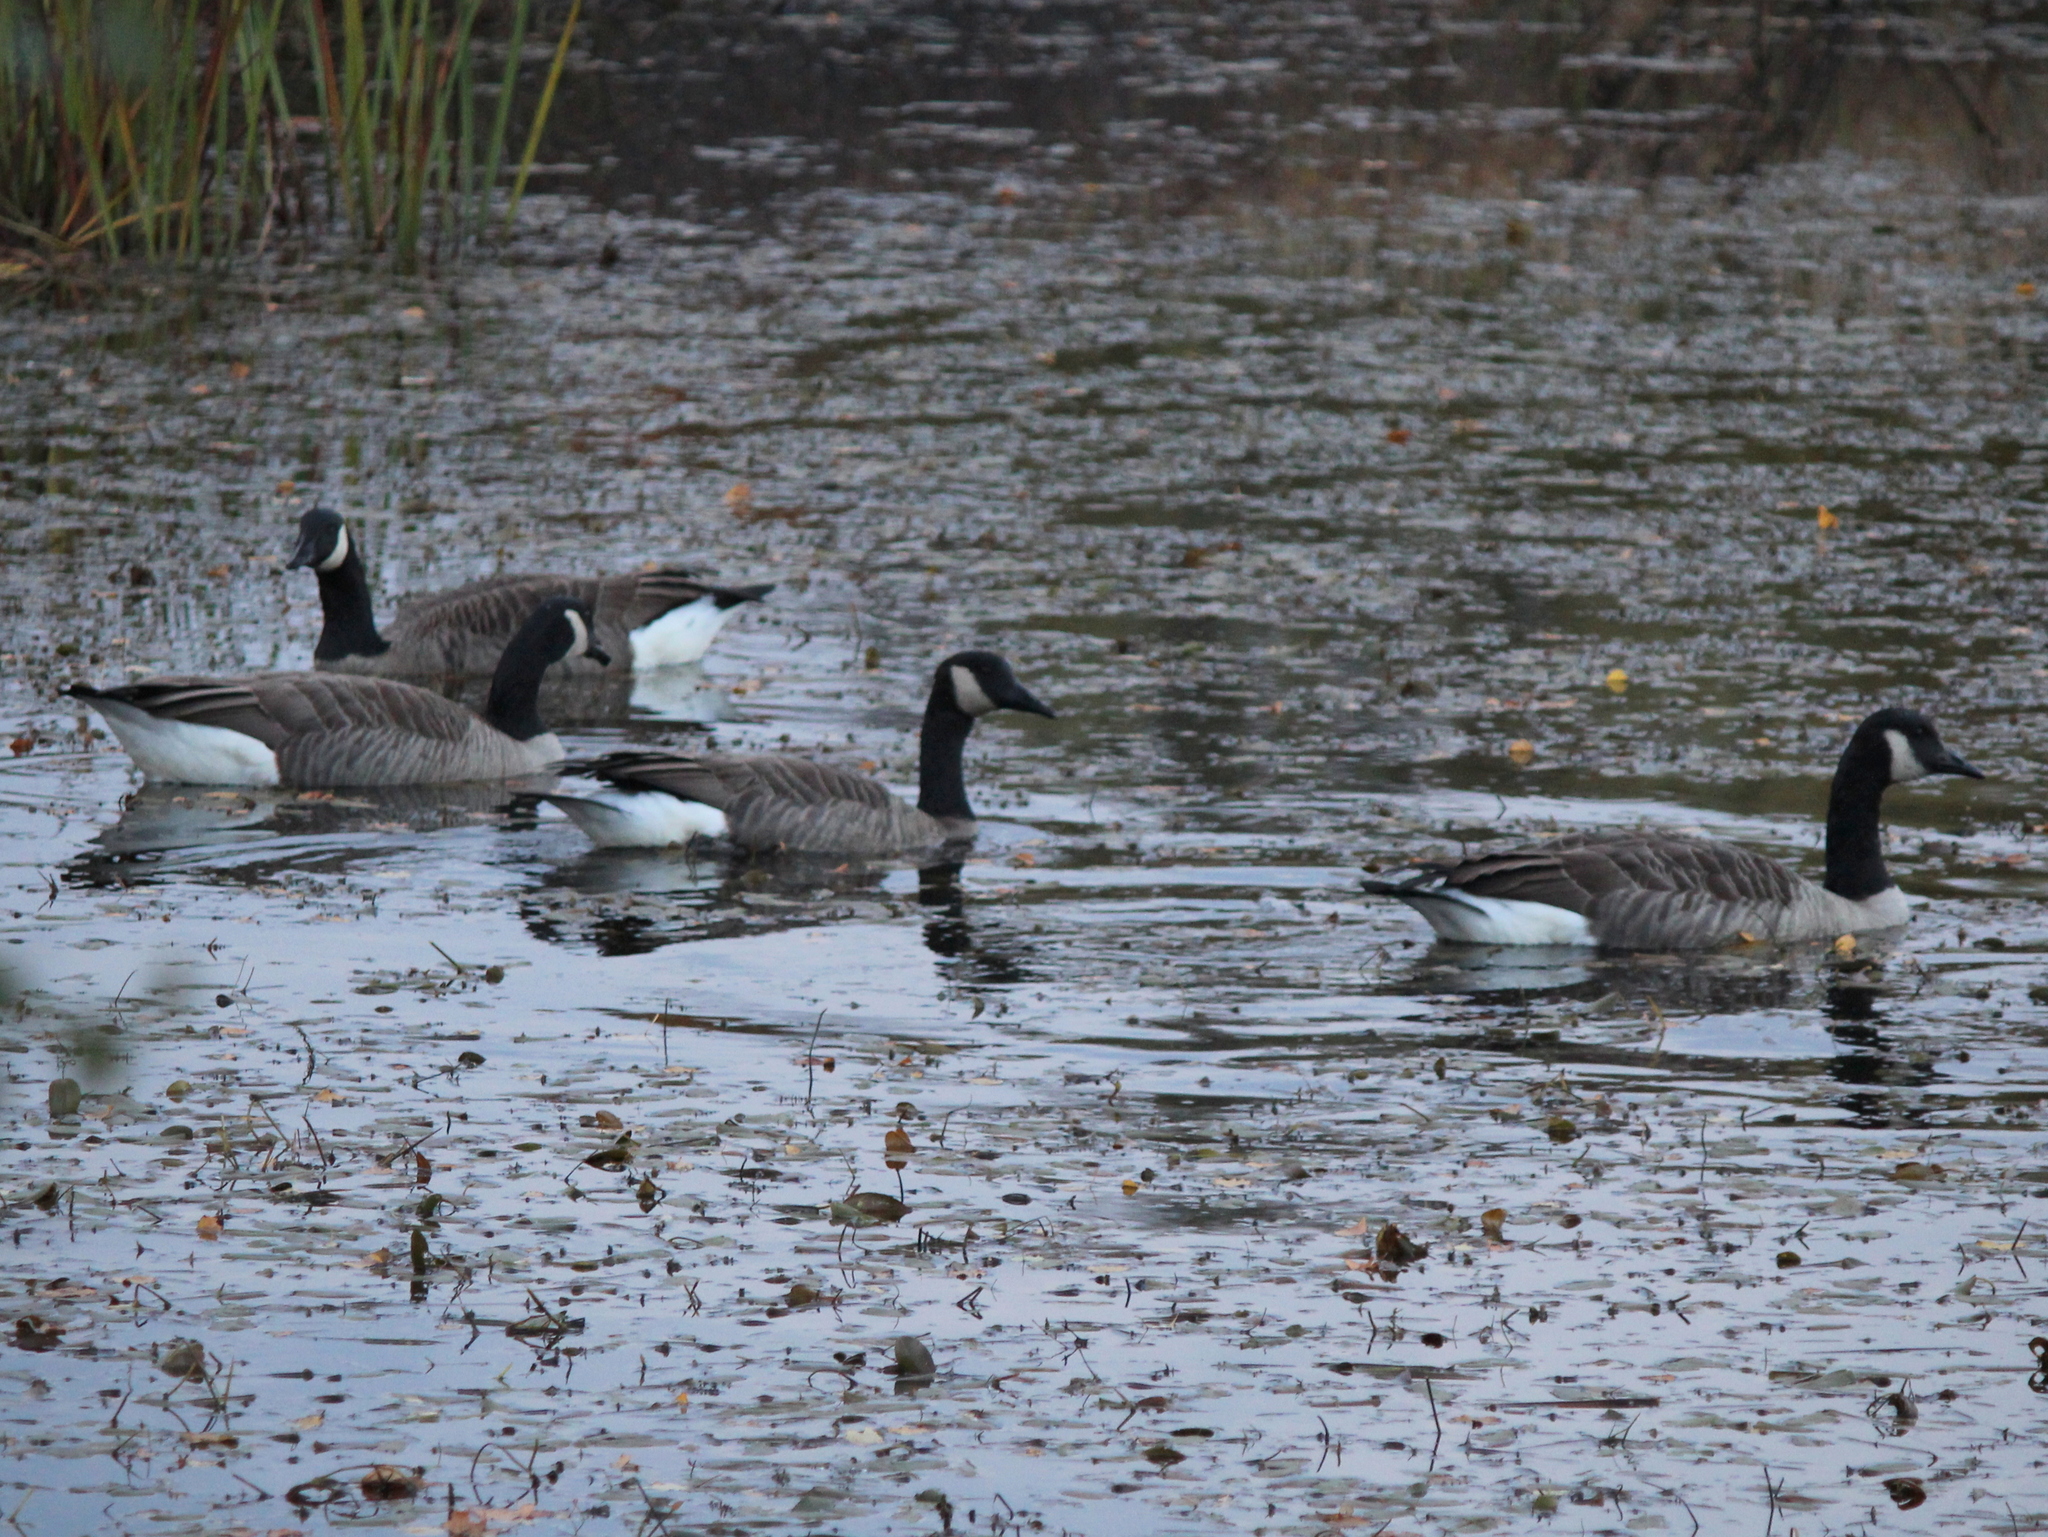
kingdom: Animalia
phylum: Chordata
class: Aves
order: Anseriformes
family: Anatidae
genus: Branta
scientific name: Branta canadensis
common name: Canada goose
